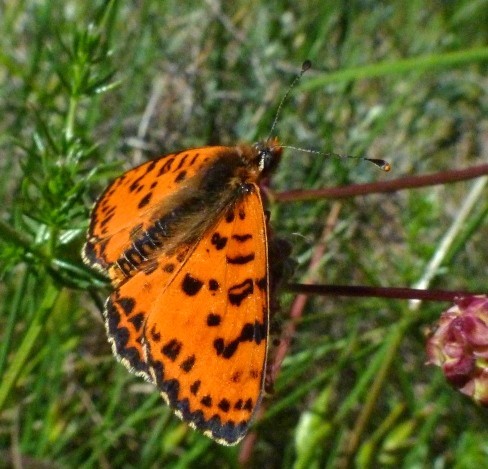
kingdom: Animalia
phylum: Arthropoda
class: Insecta
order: Lepidoptera
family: Nymphalidae
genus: Melitaea
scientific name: Melitaea didyma
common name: Spotted fritillary
